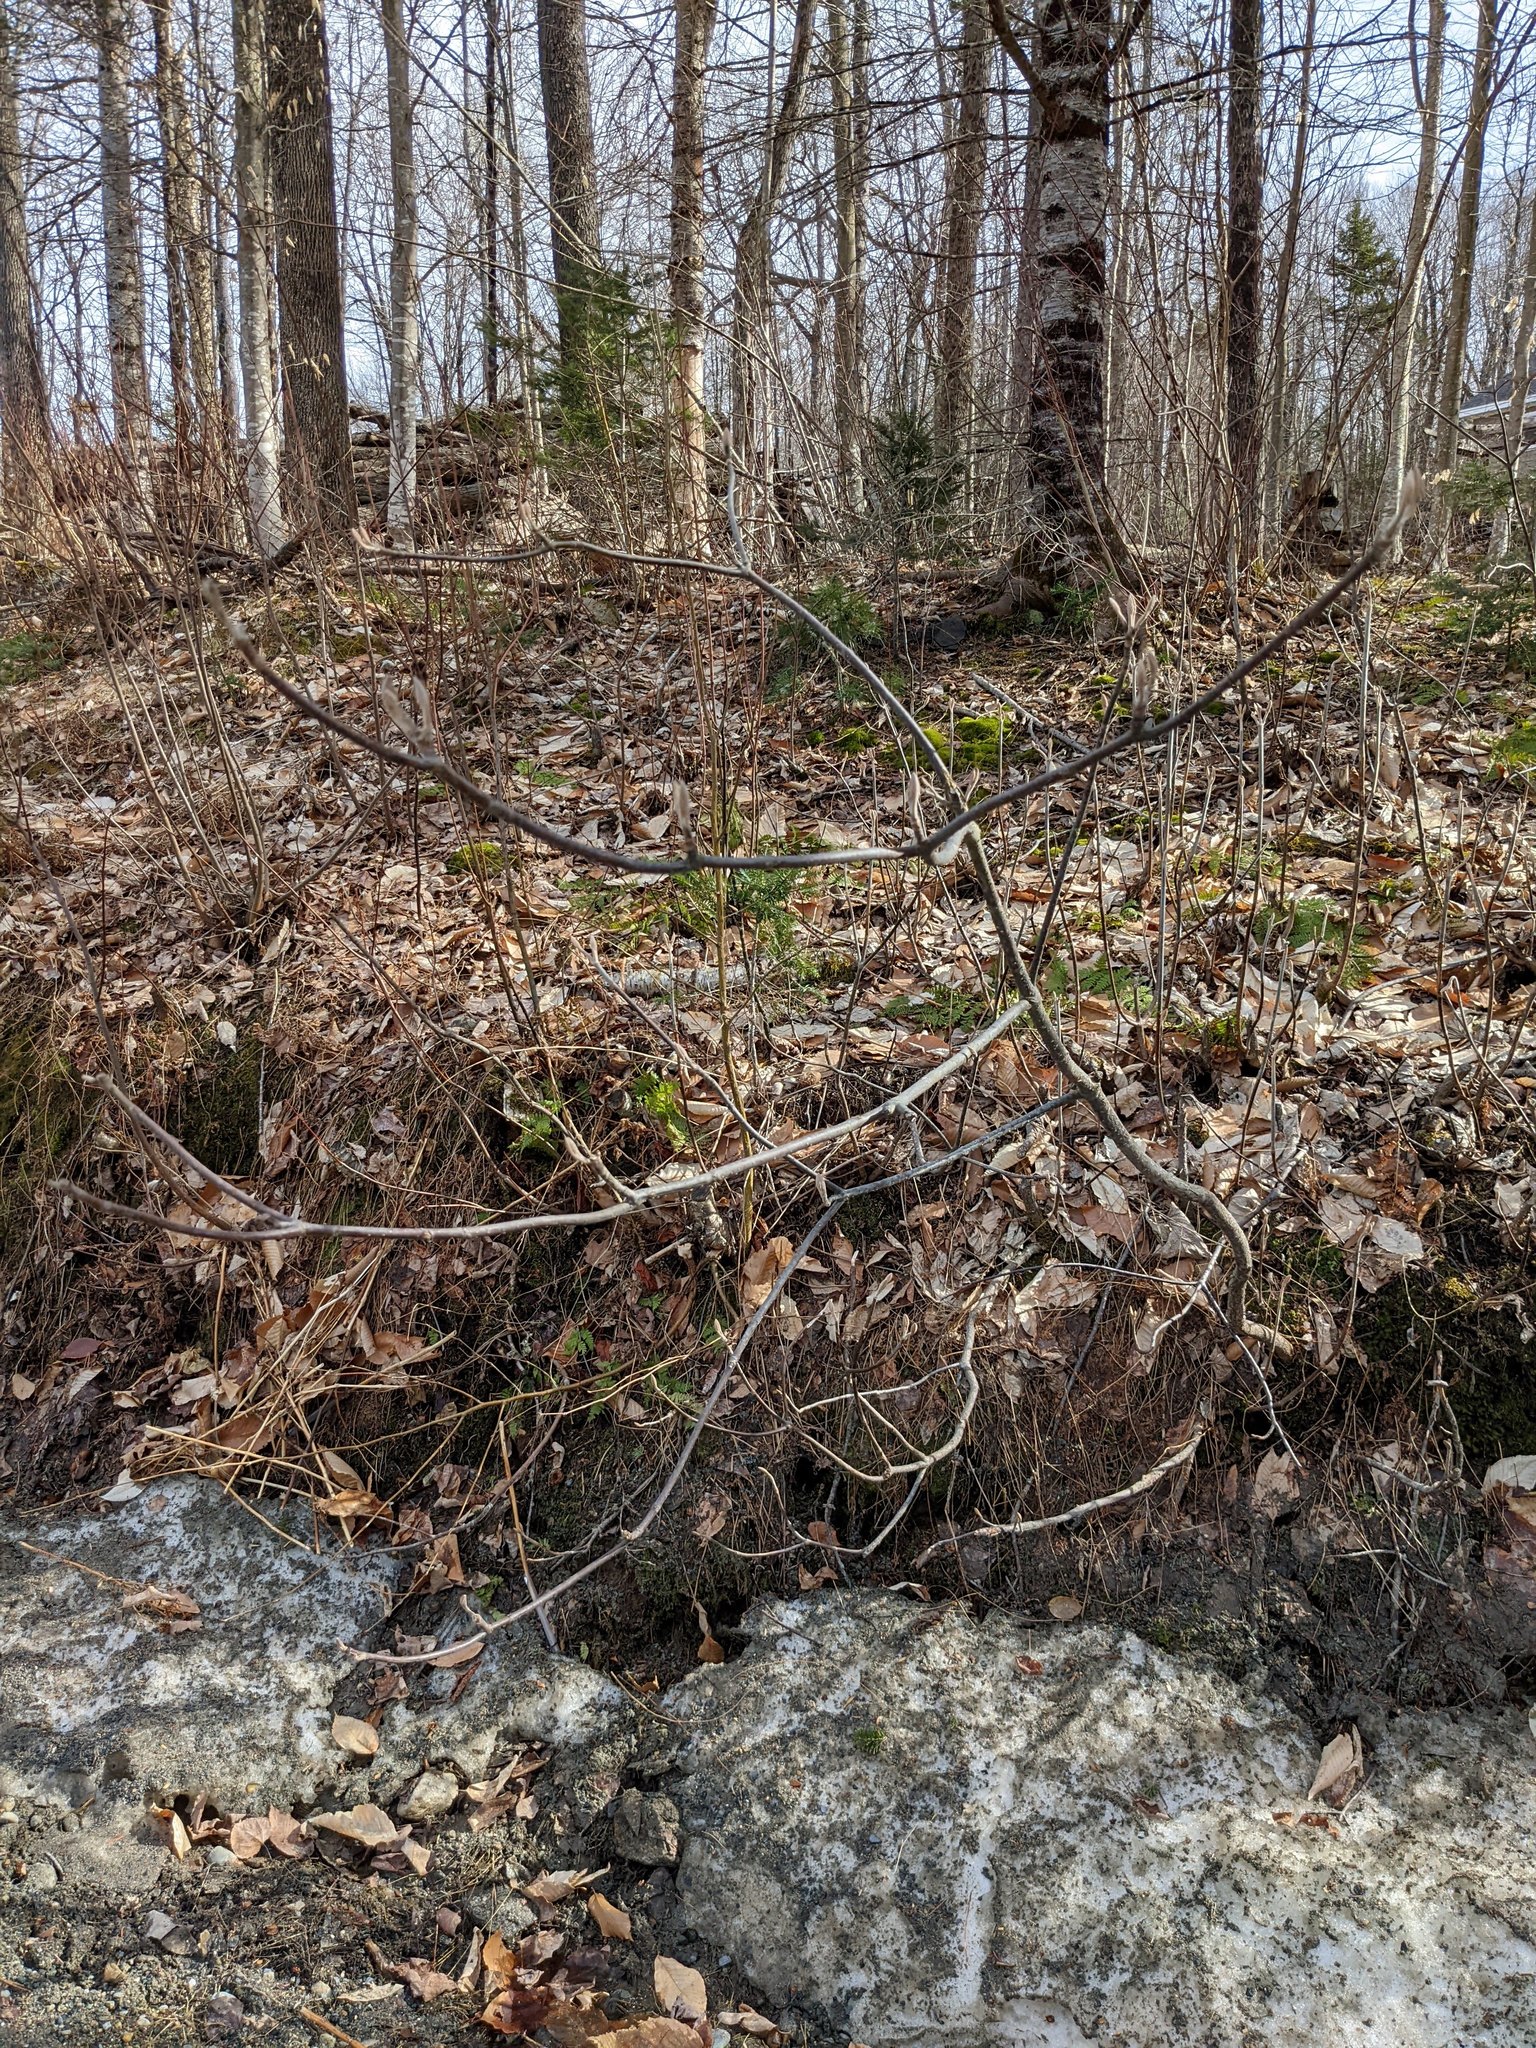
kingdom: Plantae
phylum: Tracheophyta
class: Magnoliopsida
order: Dipsacales
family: Viburnaceae
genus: Viburnum
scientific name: Viburnum lantanoides
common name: Hobblebush
